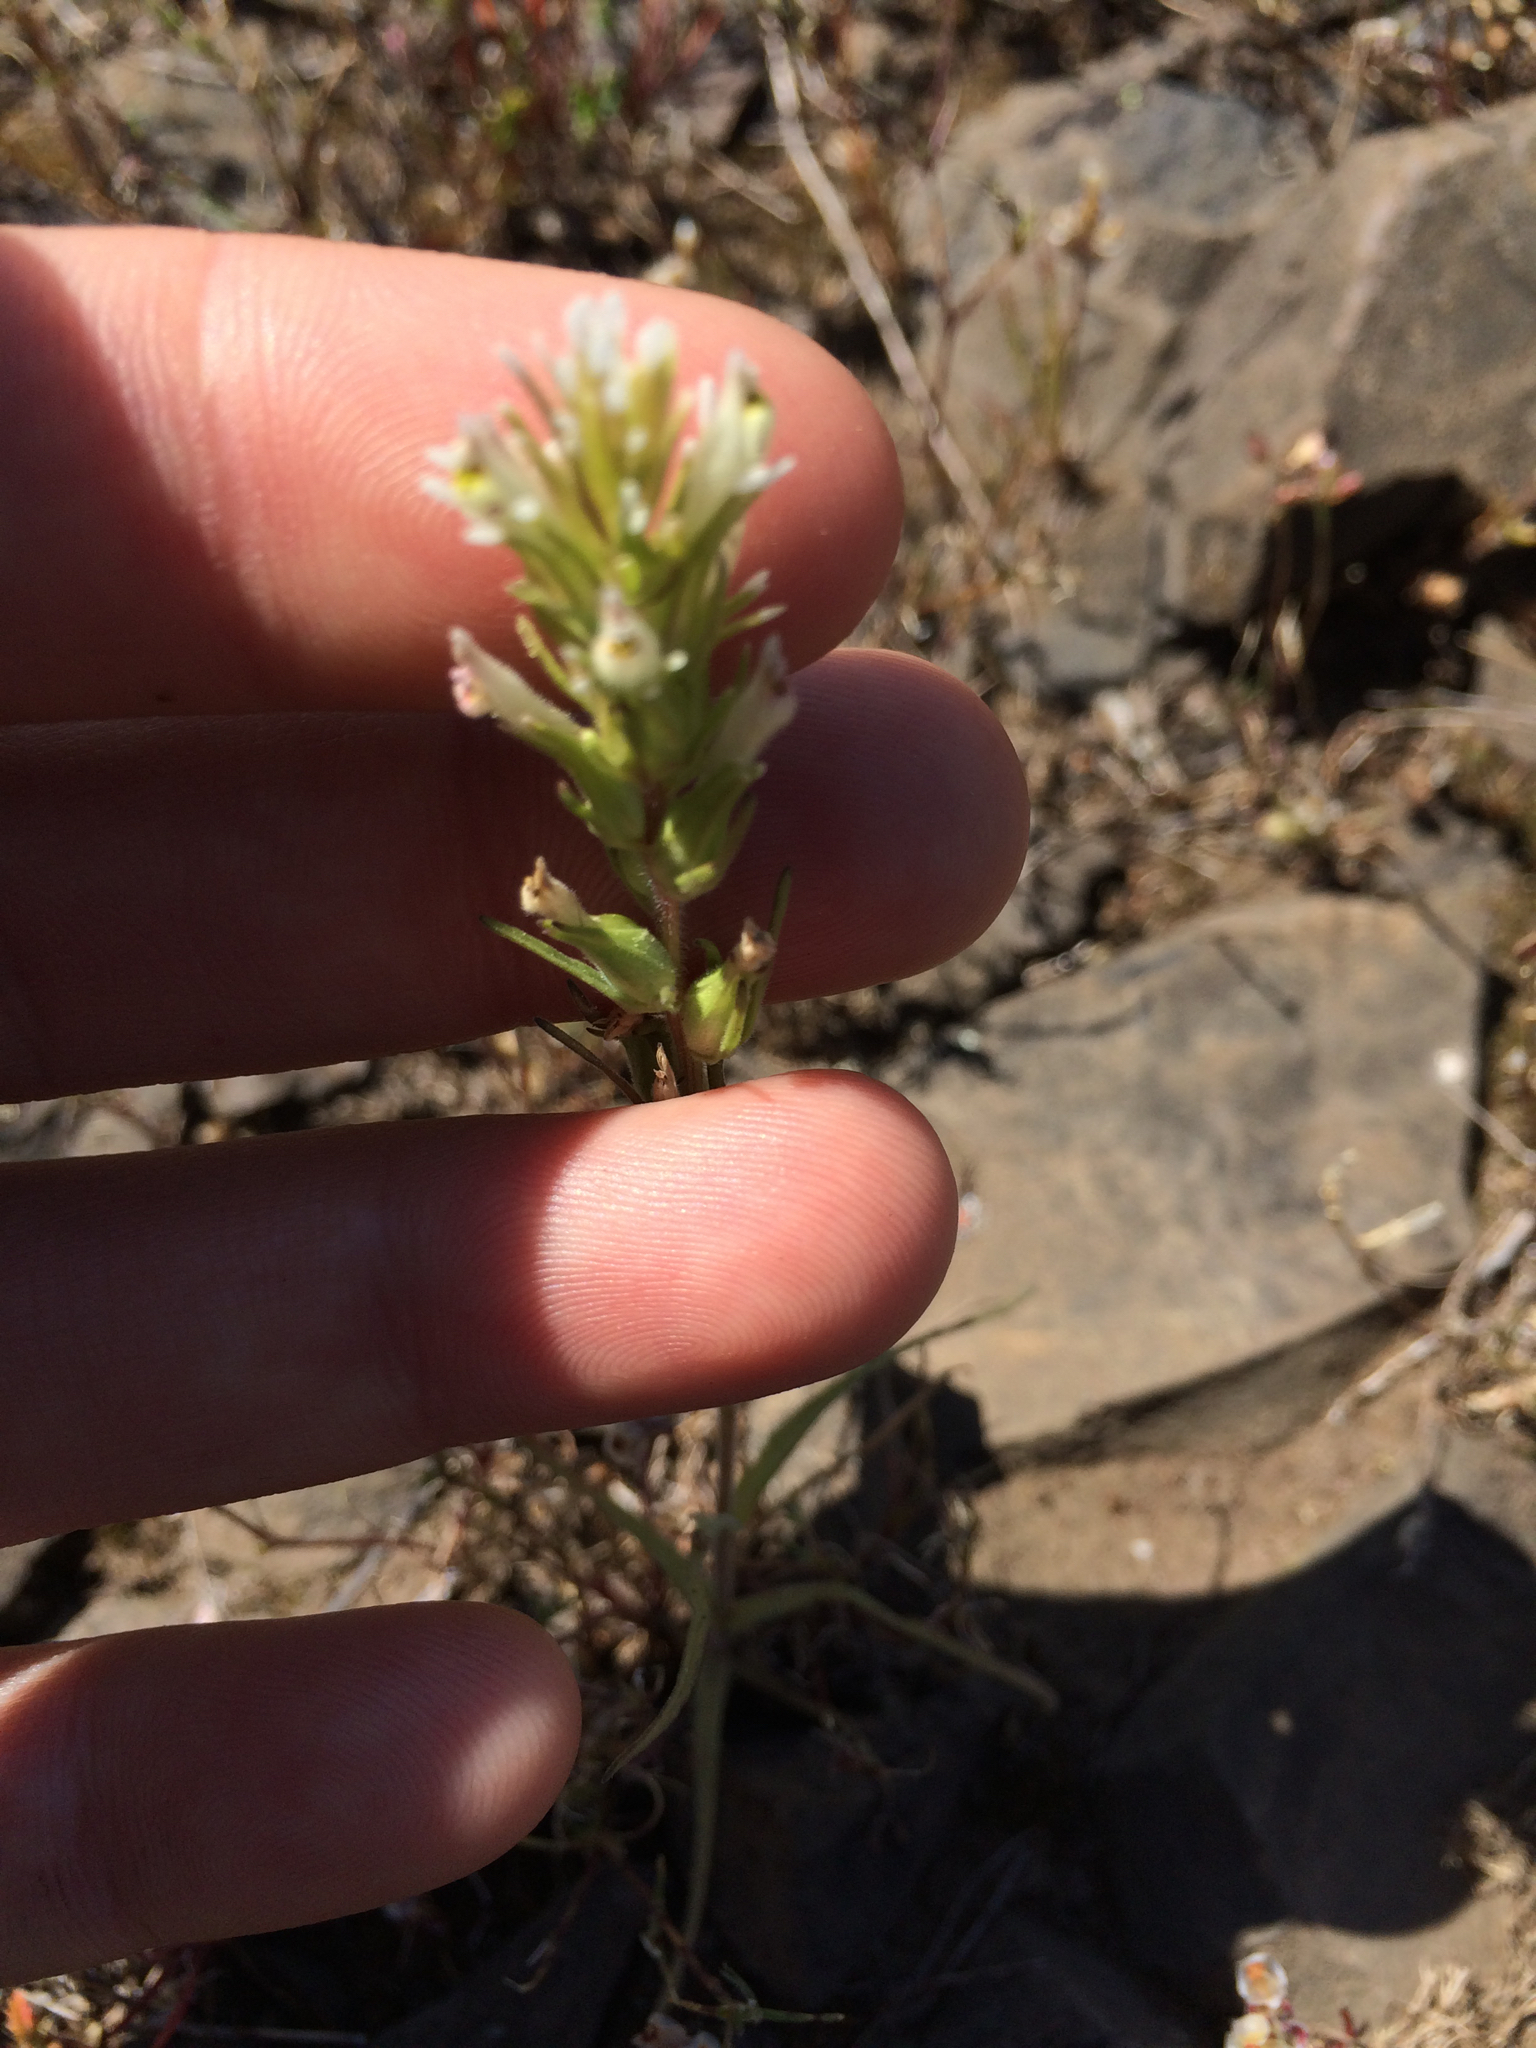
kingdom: Plantae
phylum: Tracheophyta
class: Magnoliopsida
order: Lamiales
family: Orobanchaceae
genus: Castilleja
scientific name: Castilleja attenuata
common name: Valley tassels
